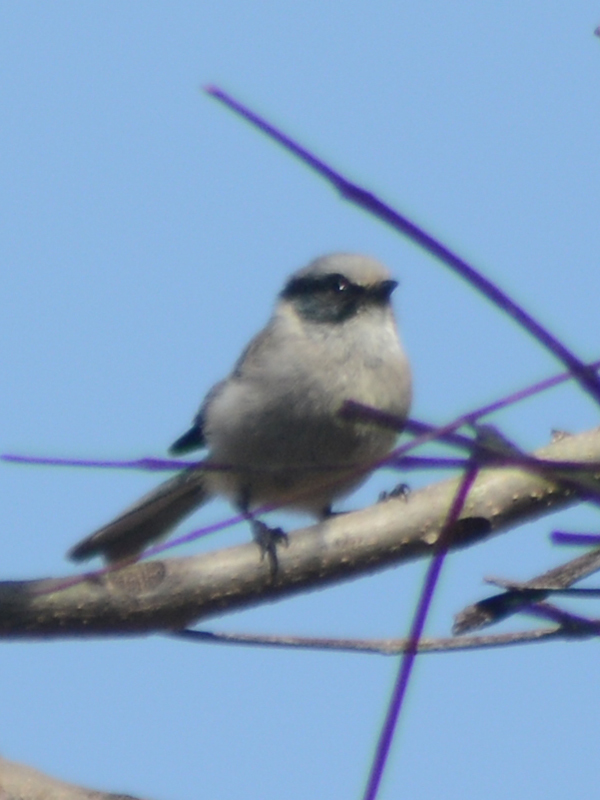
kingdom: Animalia
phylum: Chordata
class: Aves
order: Passeriformes
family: Aegithalidae
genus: Psaltriparus
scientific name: Psaltriparus minimus
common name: American bushtit
